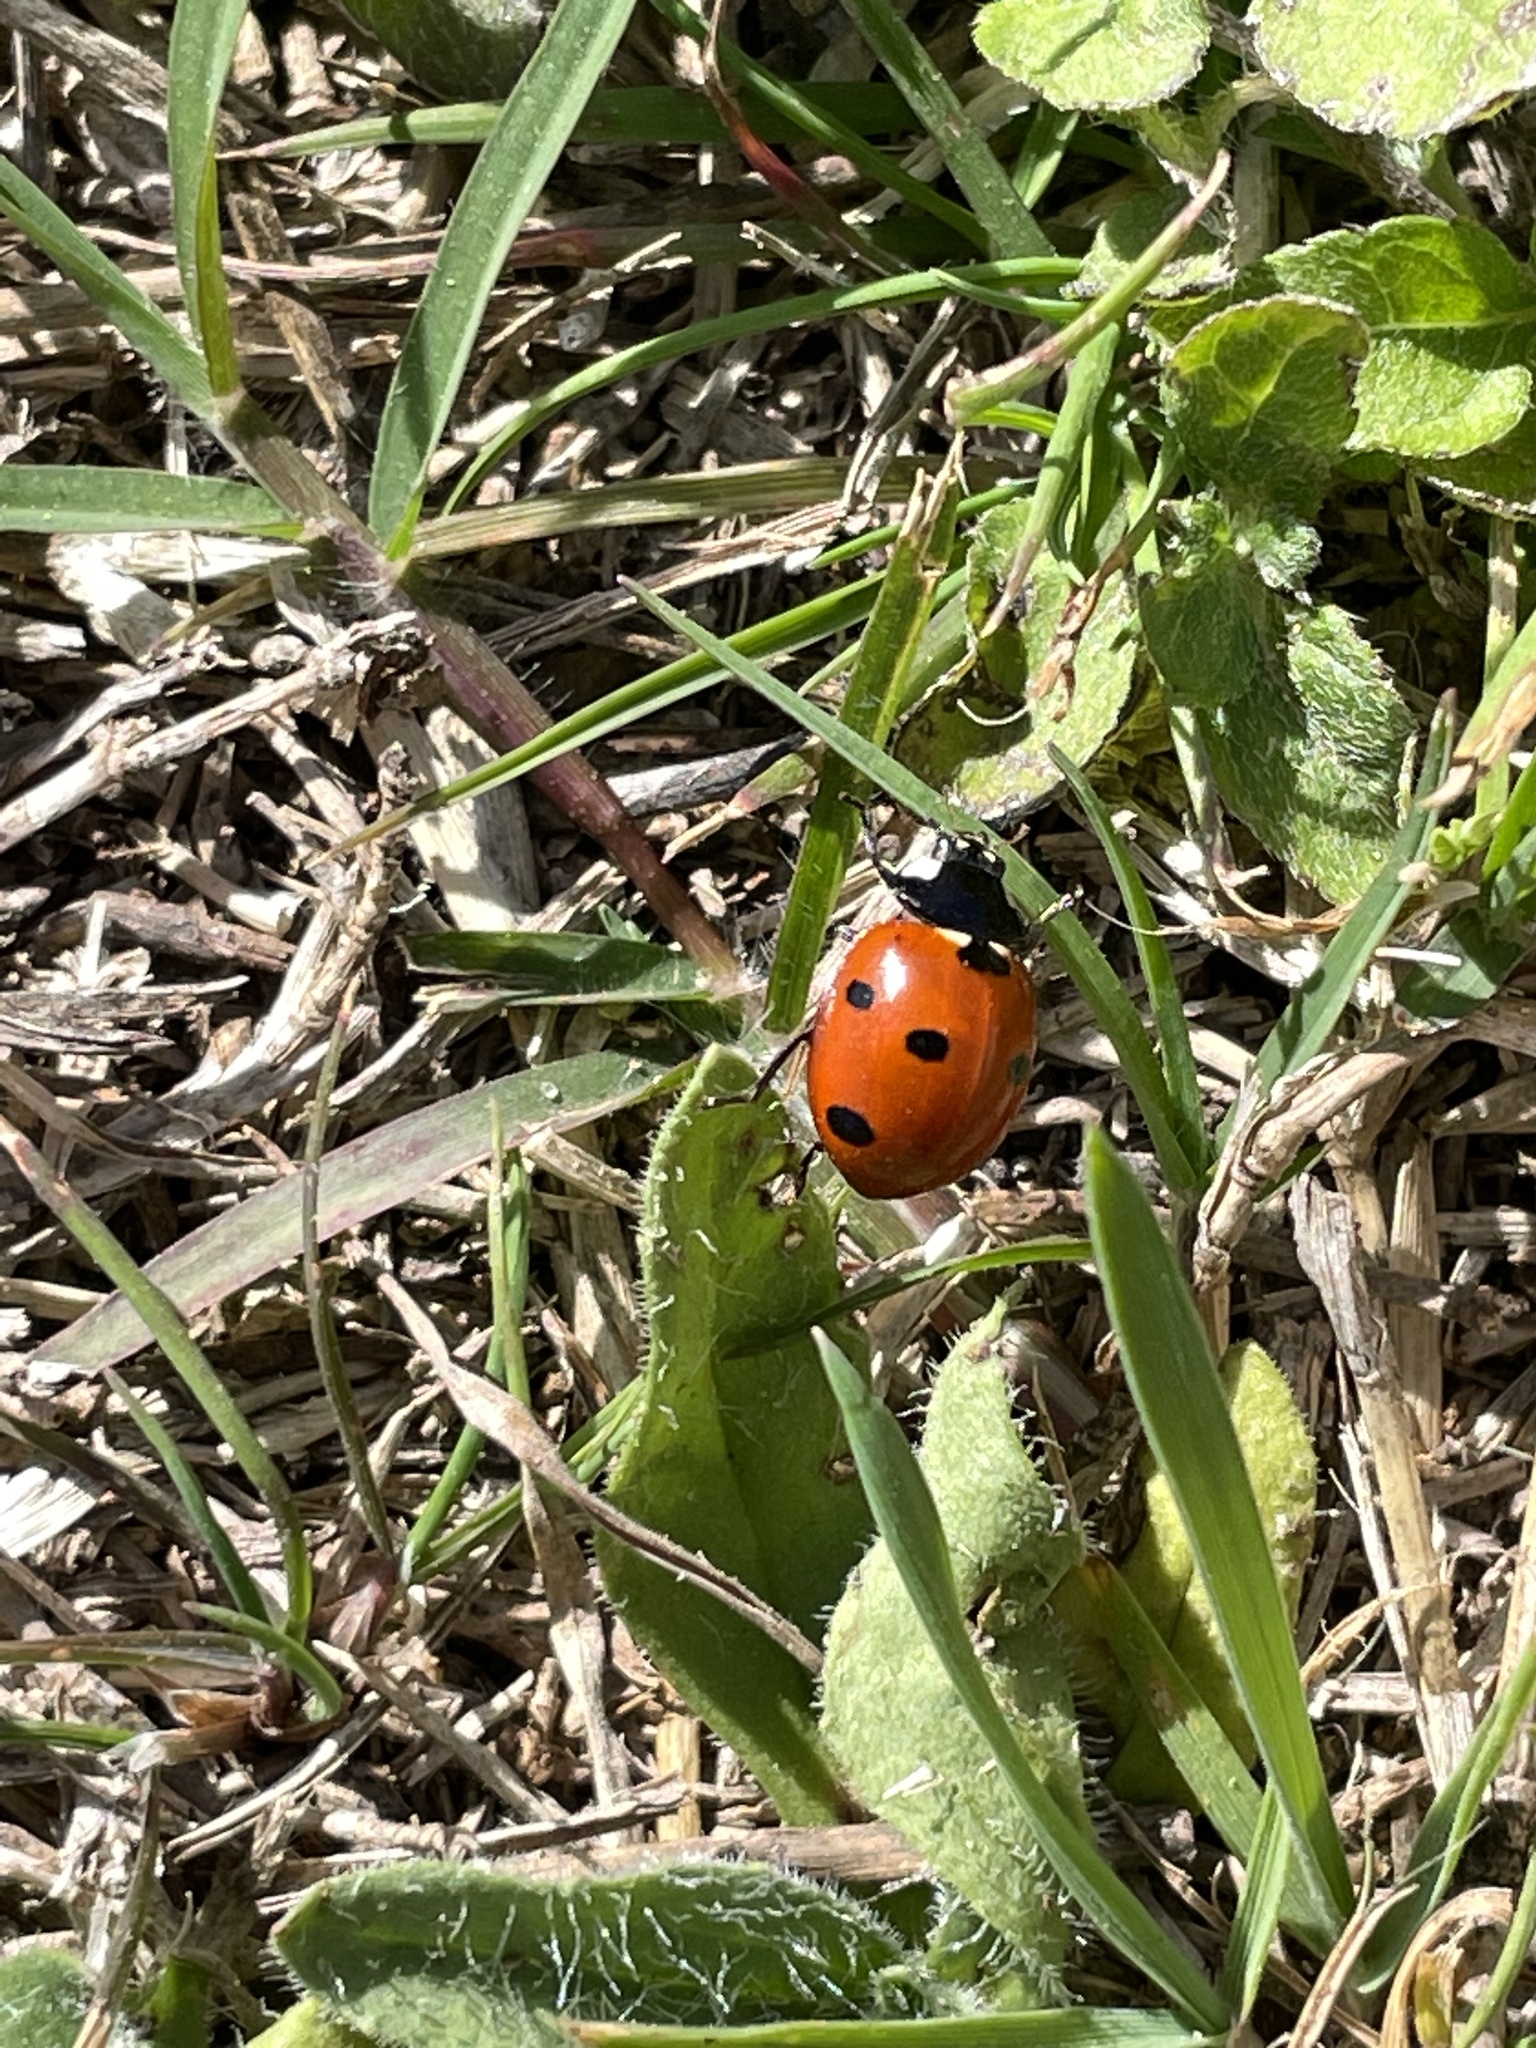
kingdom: Animalia
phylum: Arthropoda
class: Insecta
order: Coleoptera
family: Coccinellidae
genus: Coccinella
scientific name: Coccinella septempunctata
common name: Sevenspotted lady beetle
